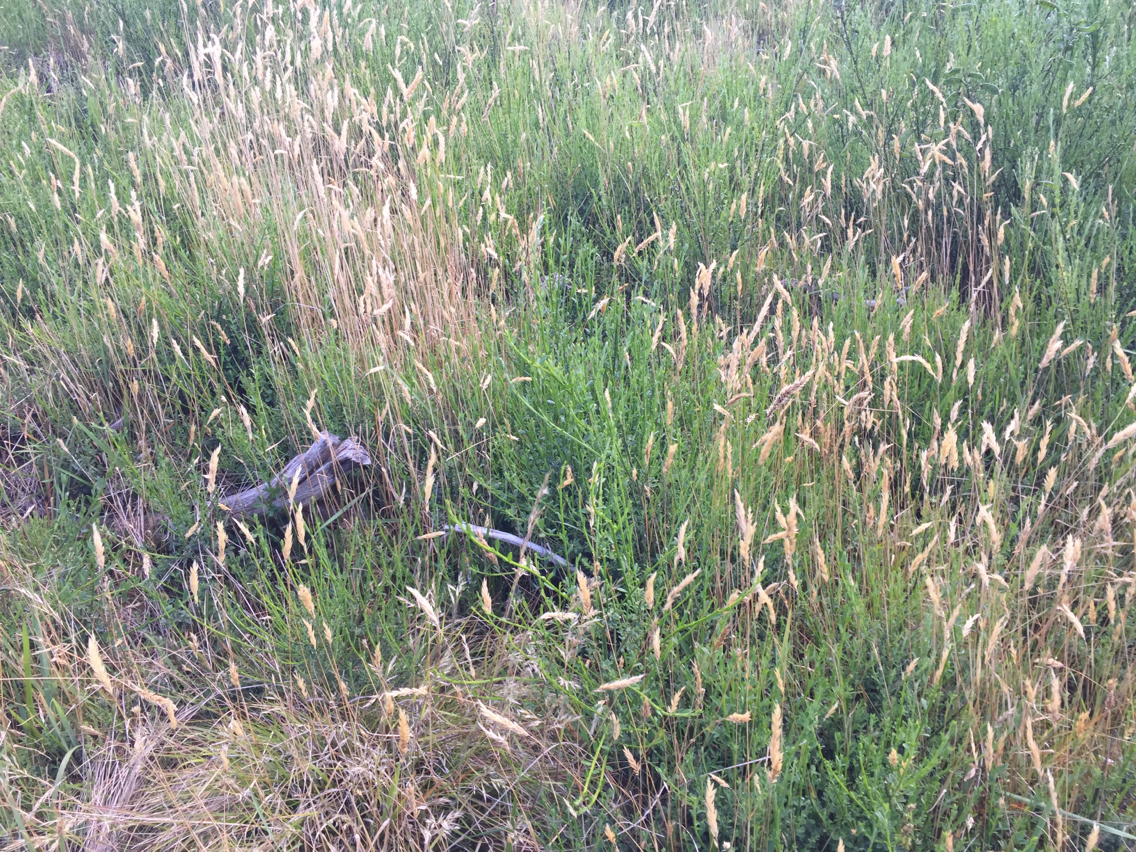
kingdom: Plantae
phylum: Tracheophyta
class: Liliopsida
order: Poales
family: Poaceae
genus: Anthoxanthum
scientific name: Anthoxanthum odoratum
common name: Sweet vernalgrass
